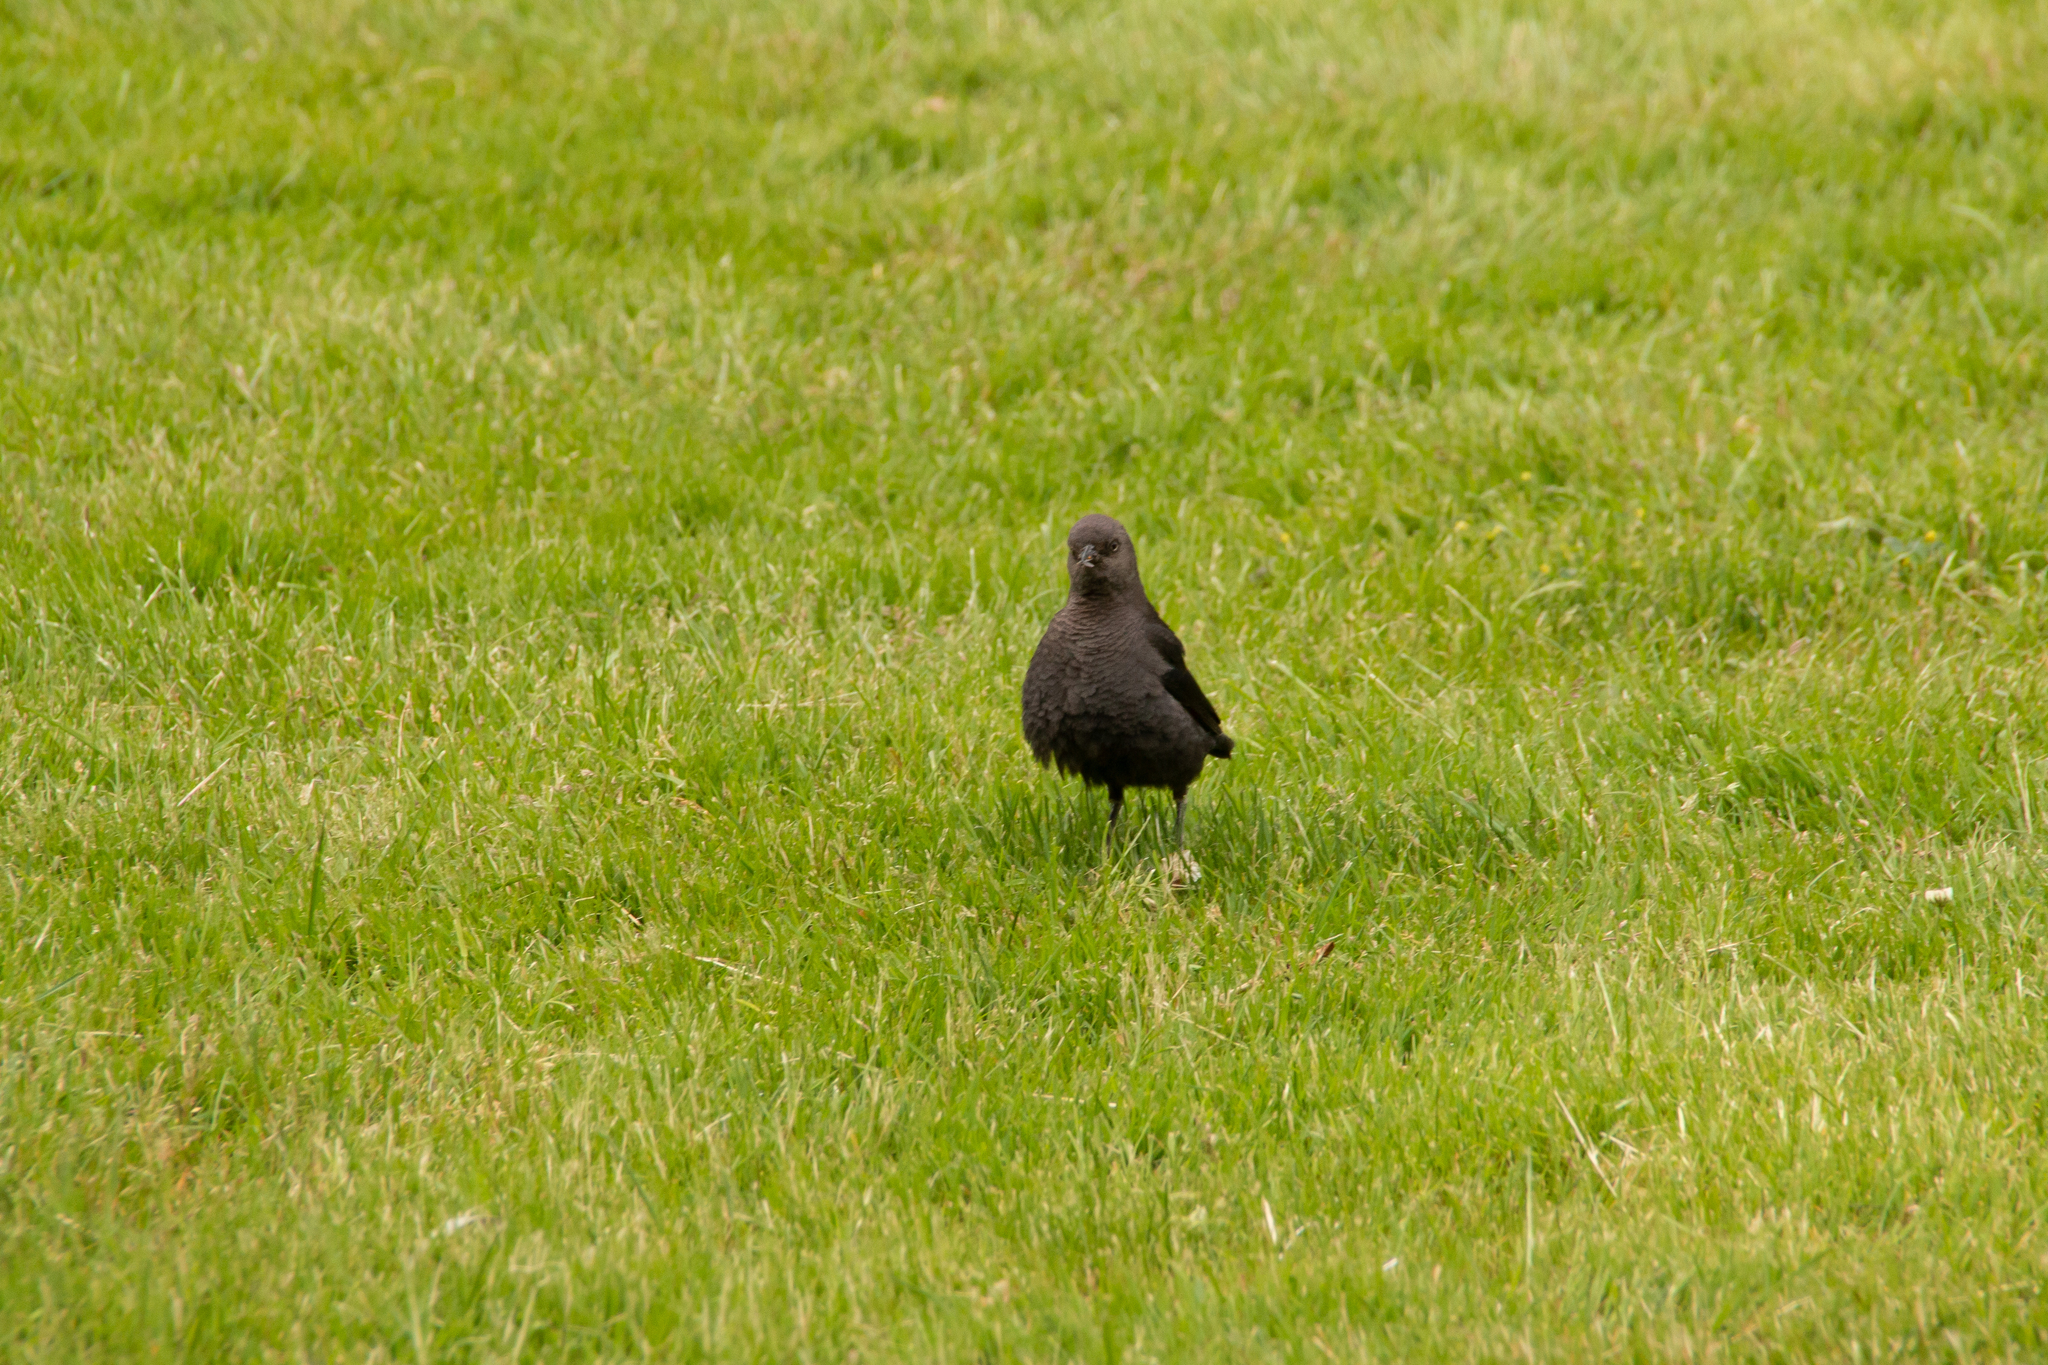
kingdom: Animalia
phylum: Chordata
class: Aves
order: Passeriformes
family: Icteridae
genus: Euphagus
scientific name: Euphagus cyanocephalus
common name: Brewer's blackbird
